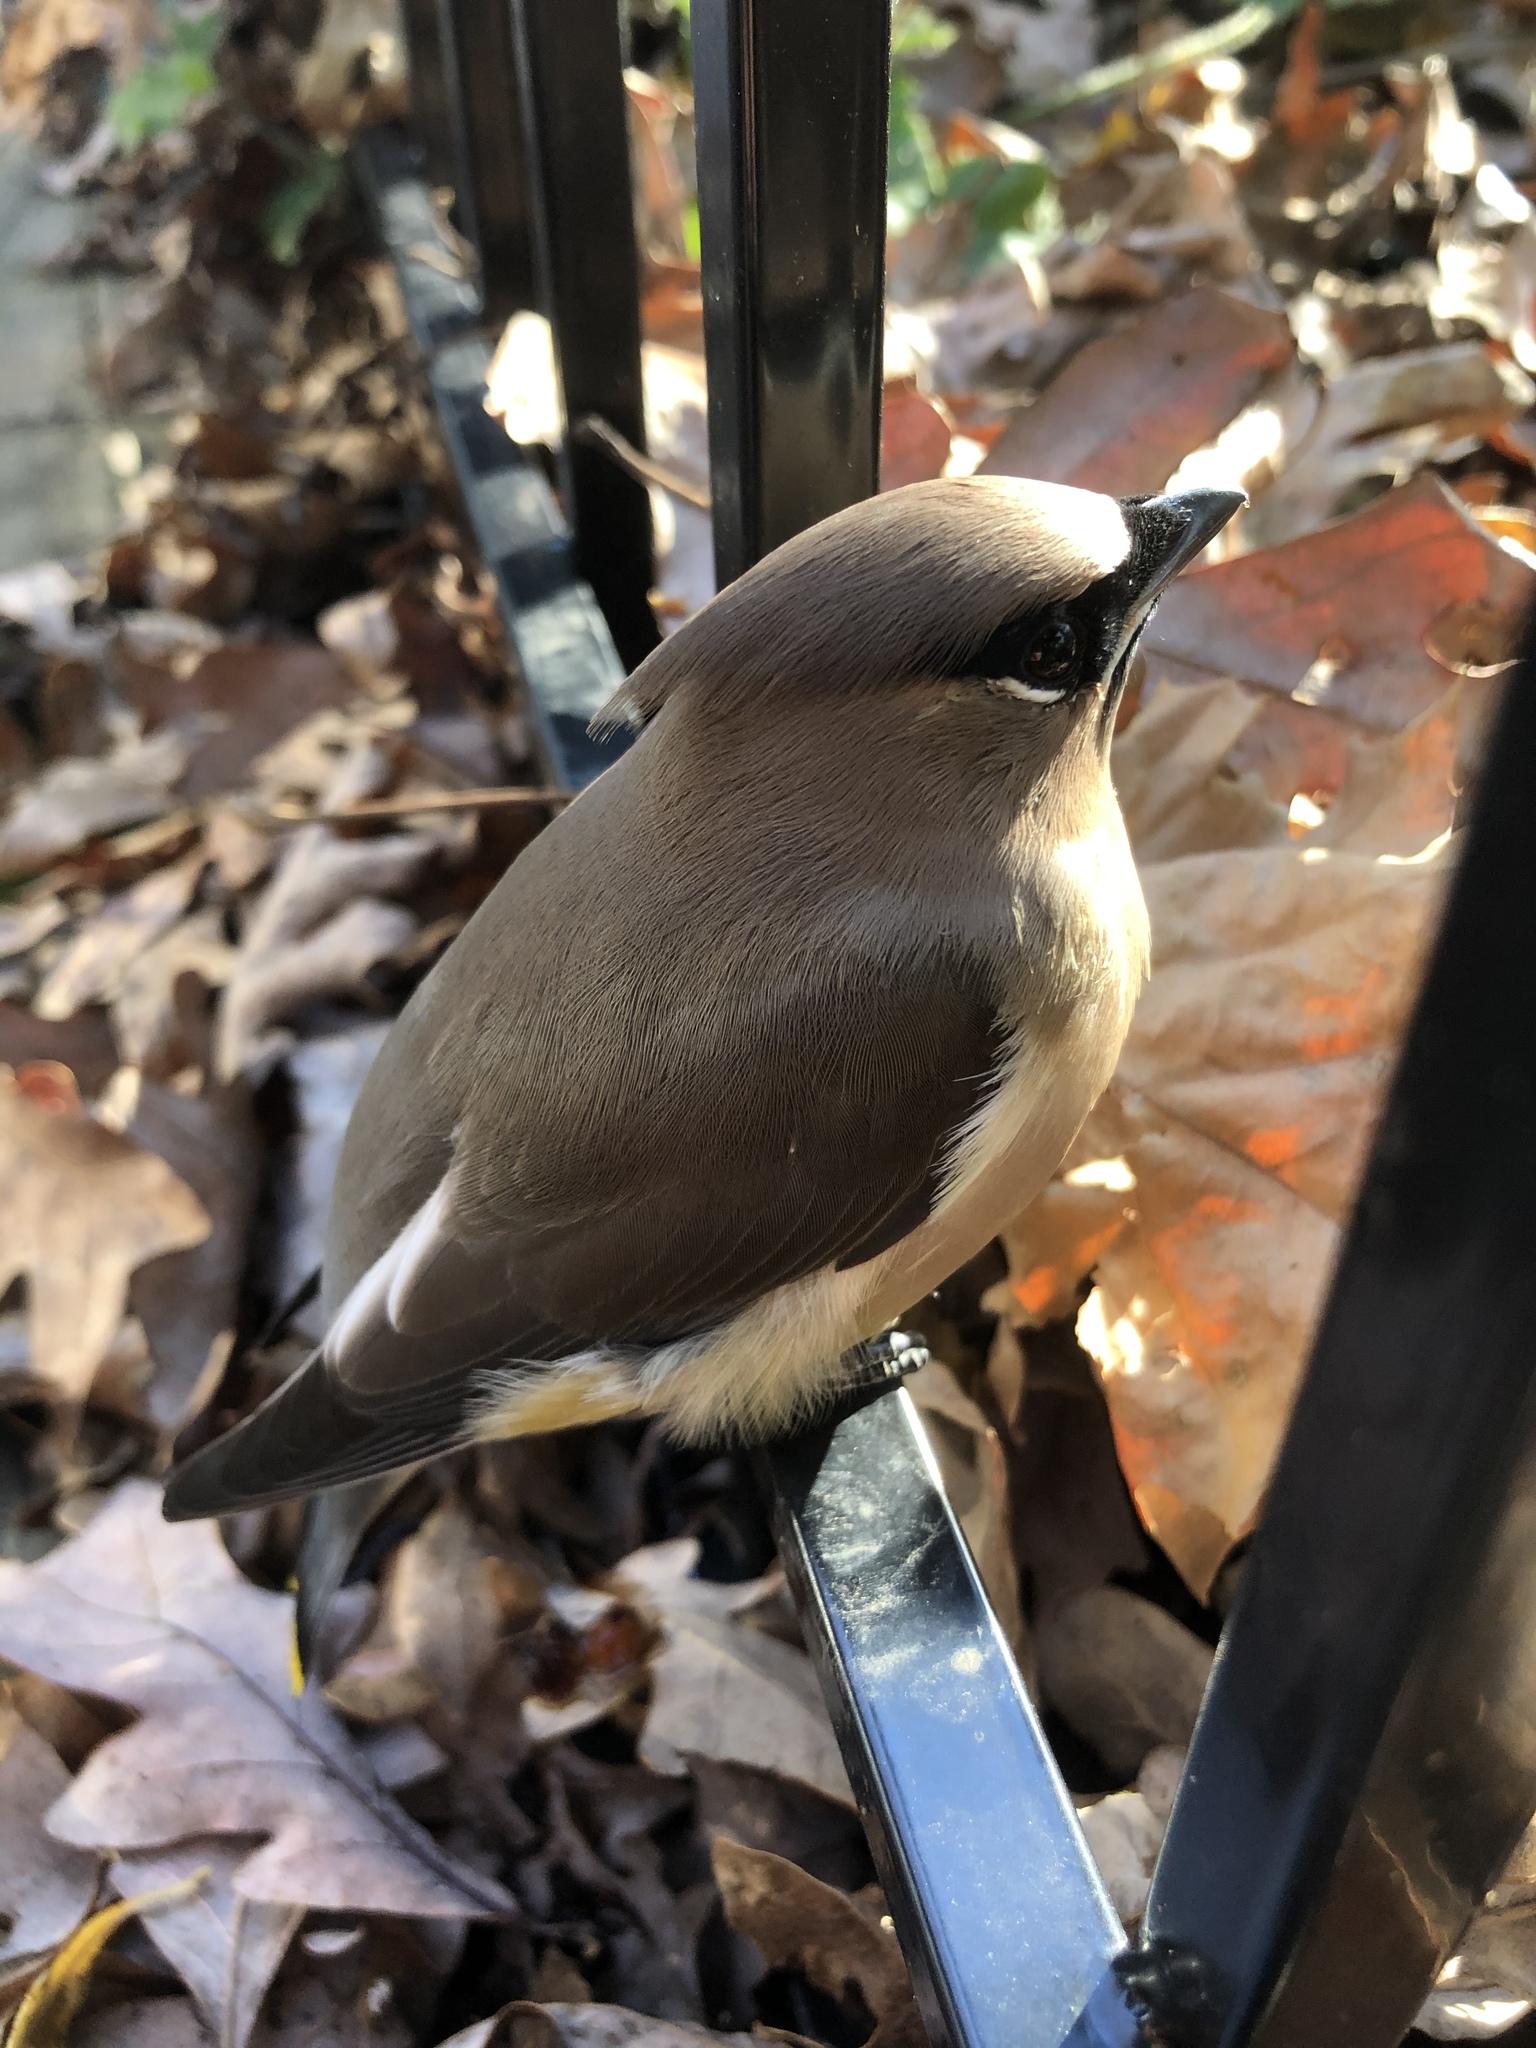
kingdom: Animalia
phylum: Chordata
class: Aves
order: Passeriformes
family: Bombycillidae
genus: Bombycilla
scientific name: Bombycilla cedrorum
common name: Cedar waxwing
